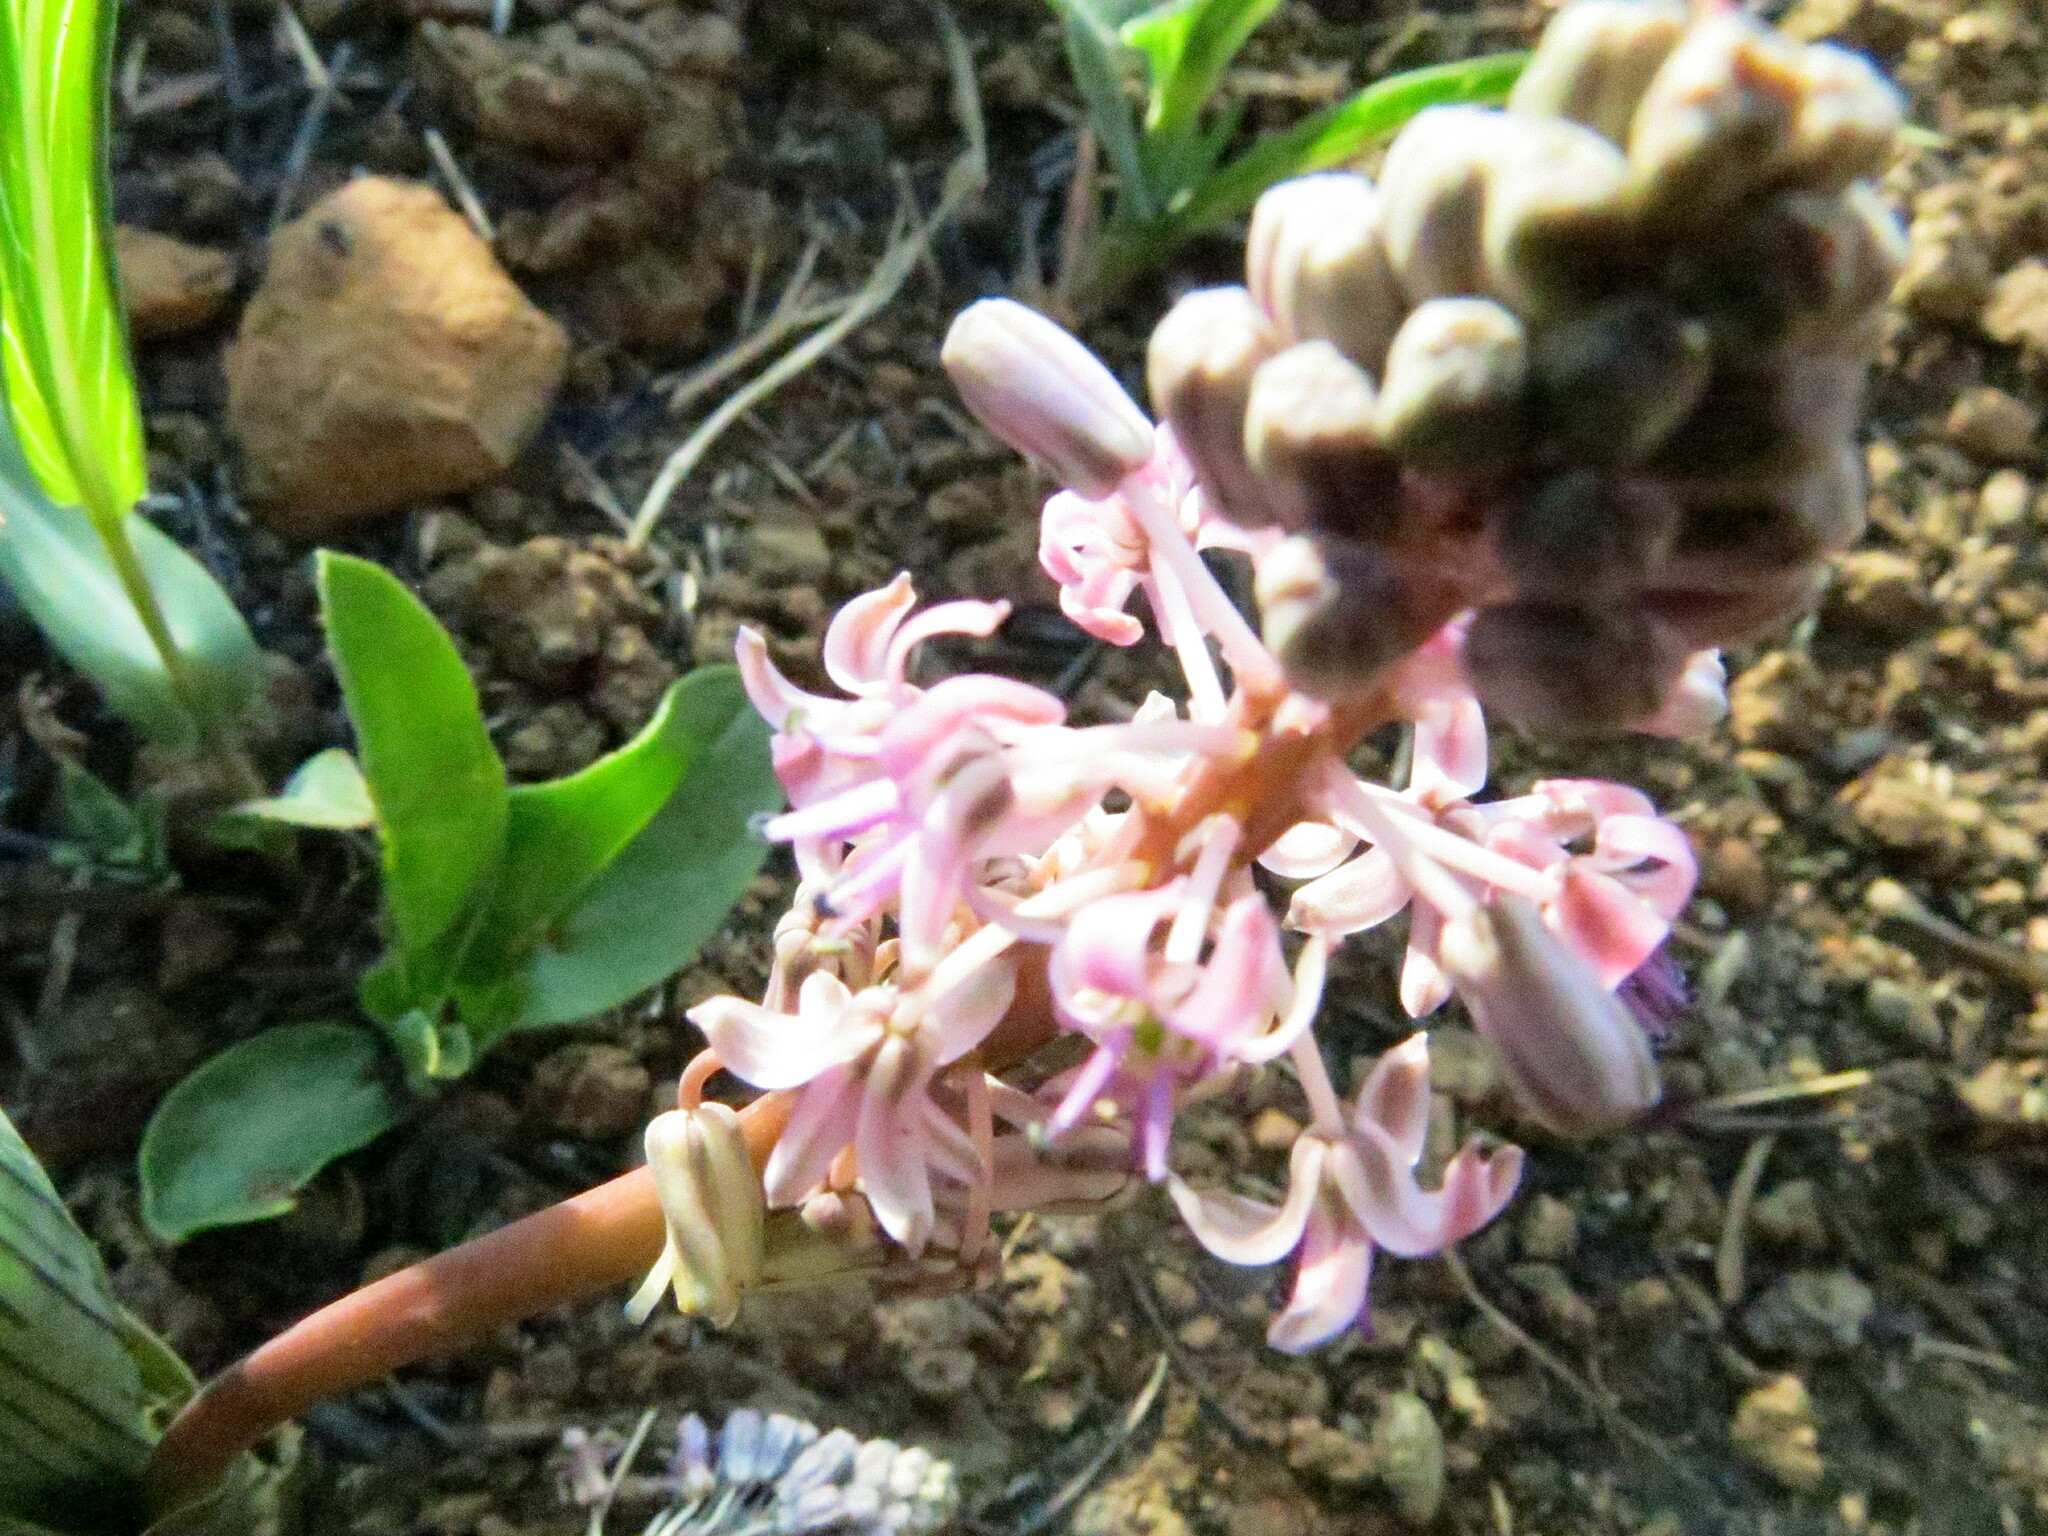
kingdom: Plantae
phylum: Tracheophyta
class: Liliopsida
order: Asparagales
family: Asparagaceae
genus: Ledebouria
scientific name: Ledebouria cooperi
